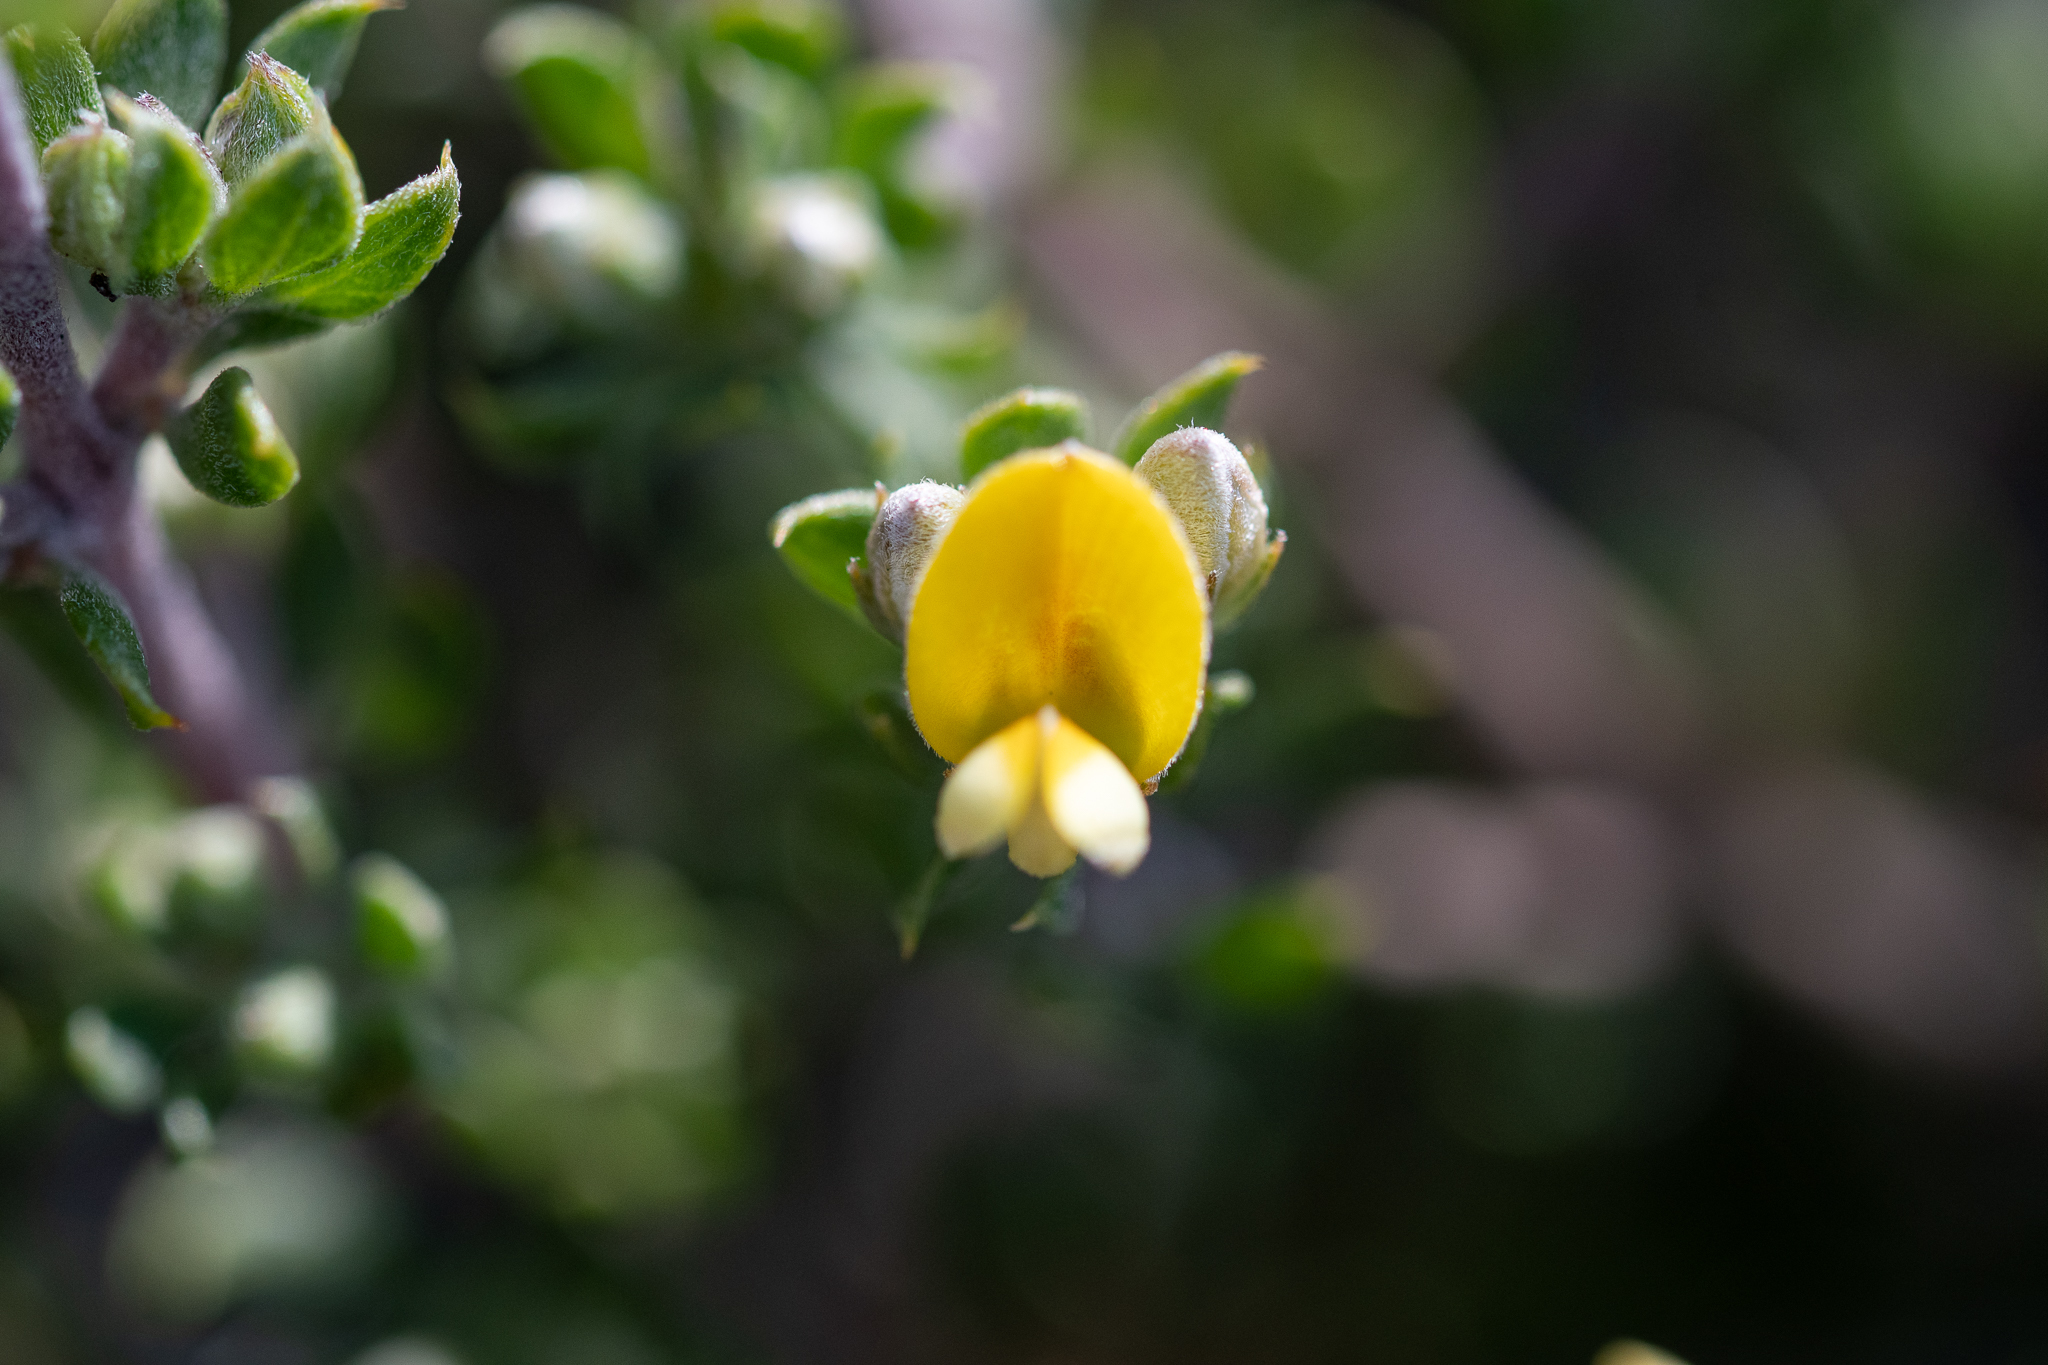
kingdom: Plantae
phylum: Tracheophyta
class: Magnoliopsida
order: Fabales
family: Fabaceae
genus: Aspalathus
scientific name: Aspalathus marginata
